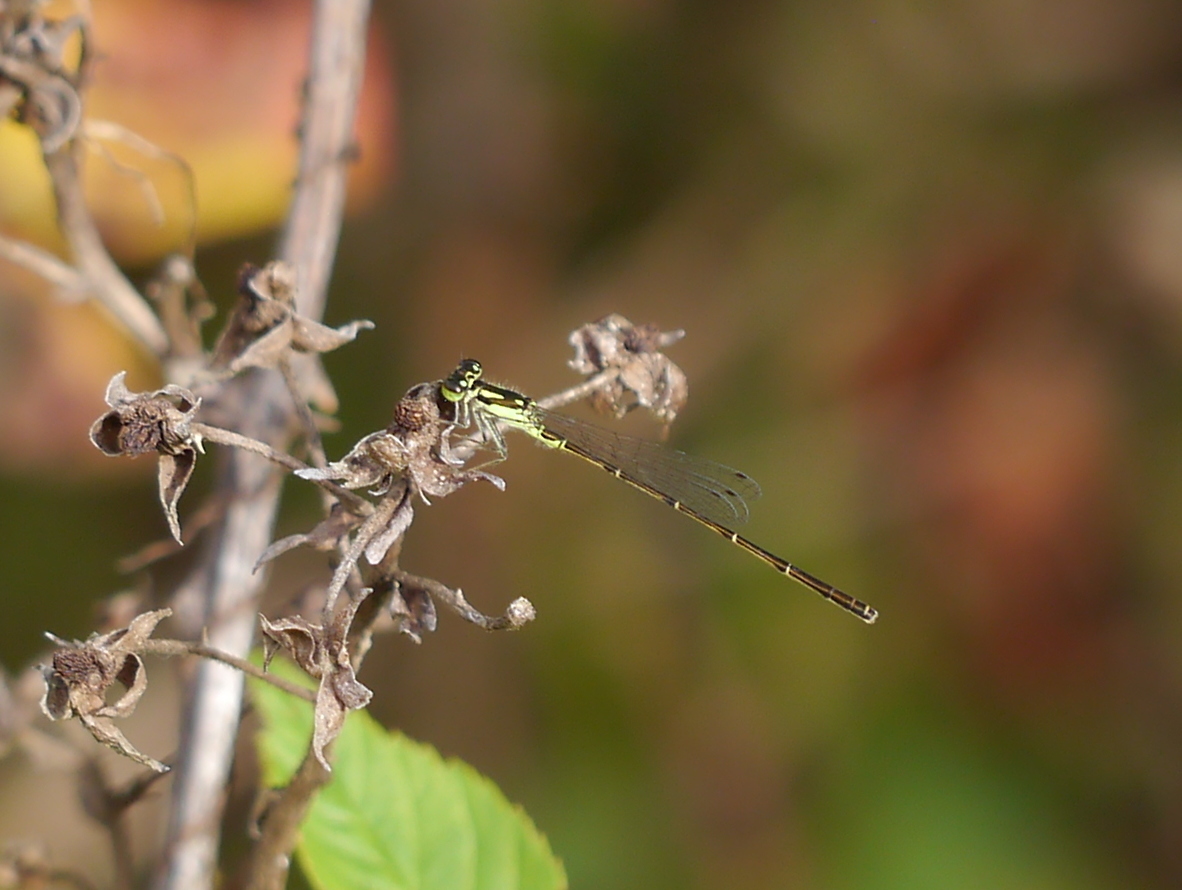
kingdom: Animalia
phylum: Arthropoda
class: Insecta
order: Odonata
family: Coenagrionidae
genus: Ischnura
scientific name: Ischnura posita
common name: Fragile forktail
